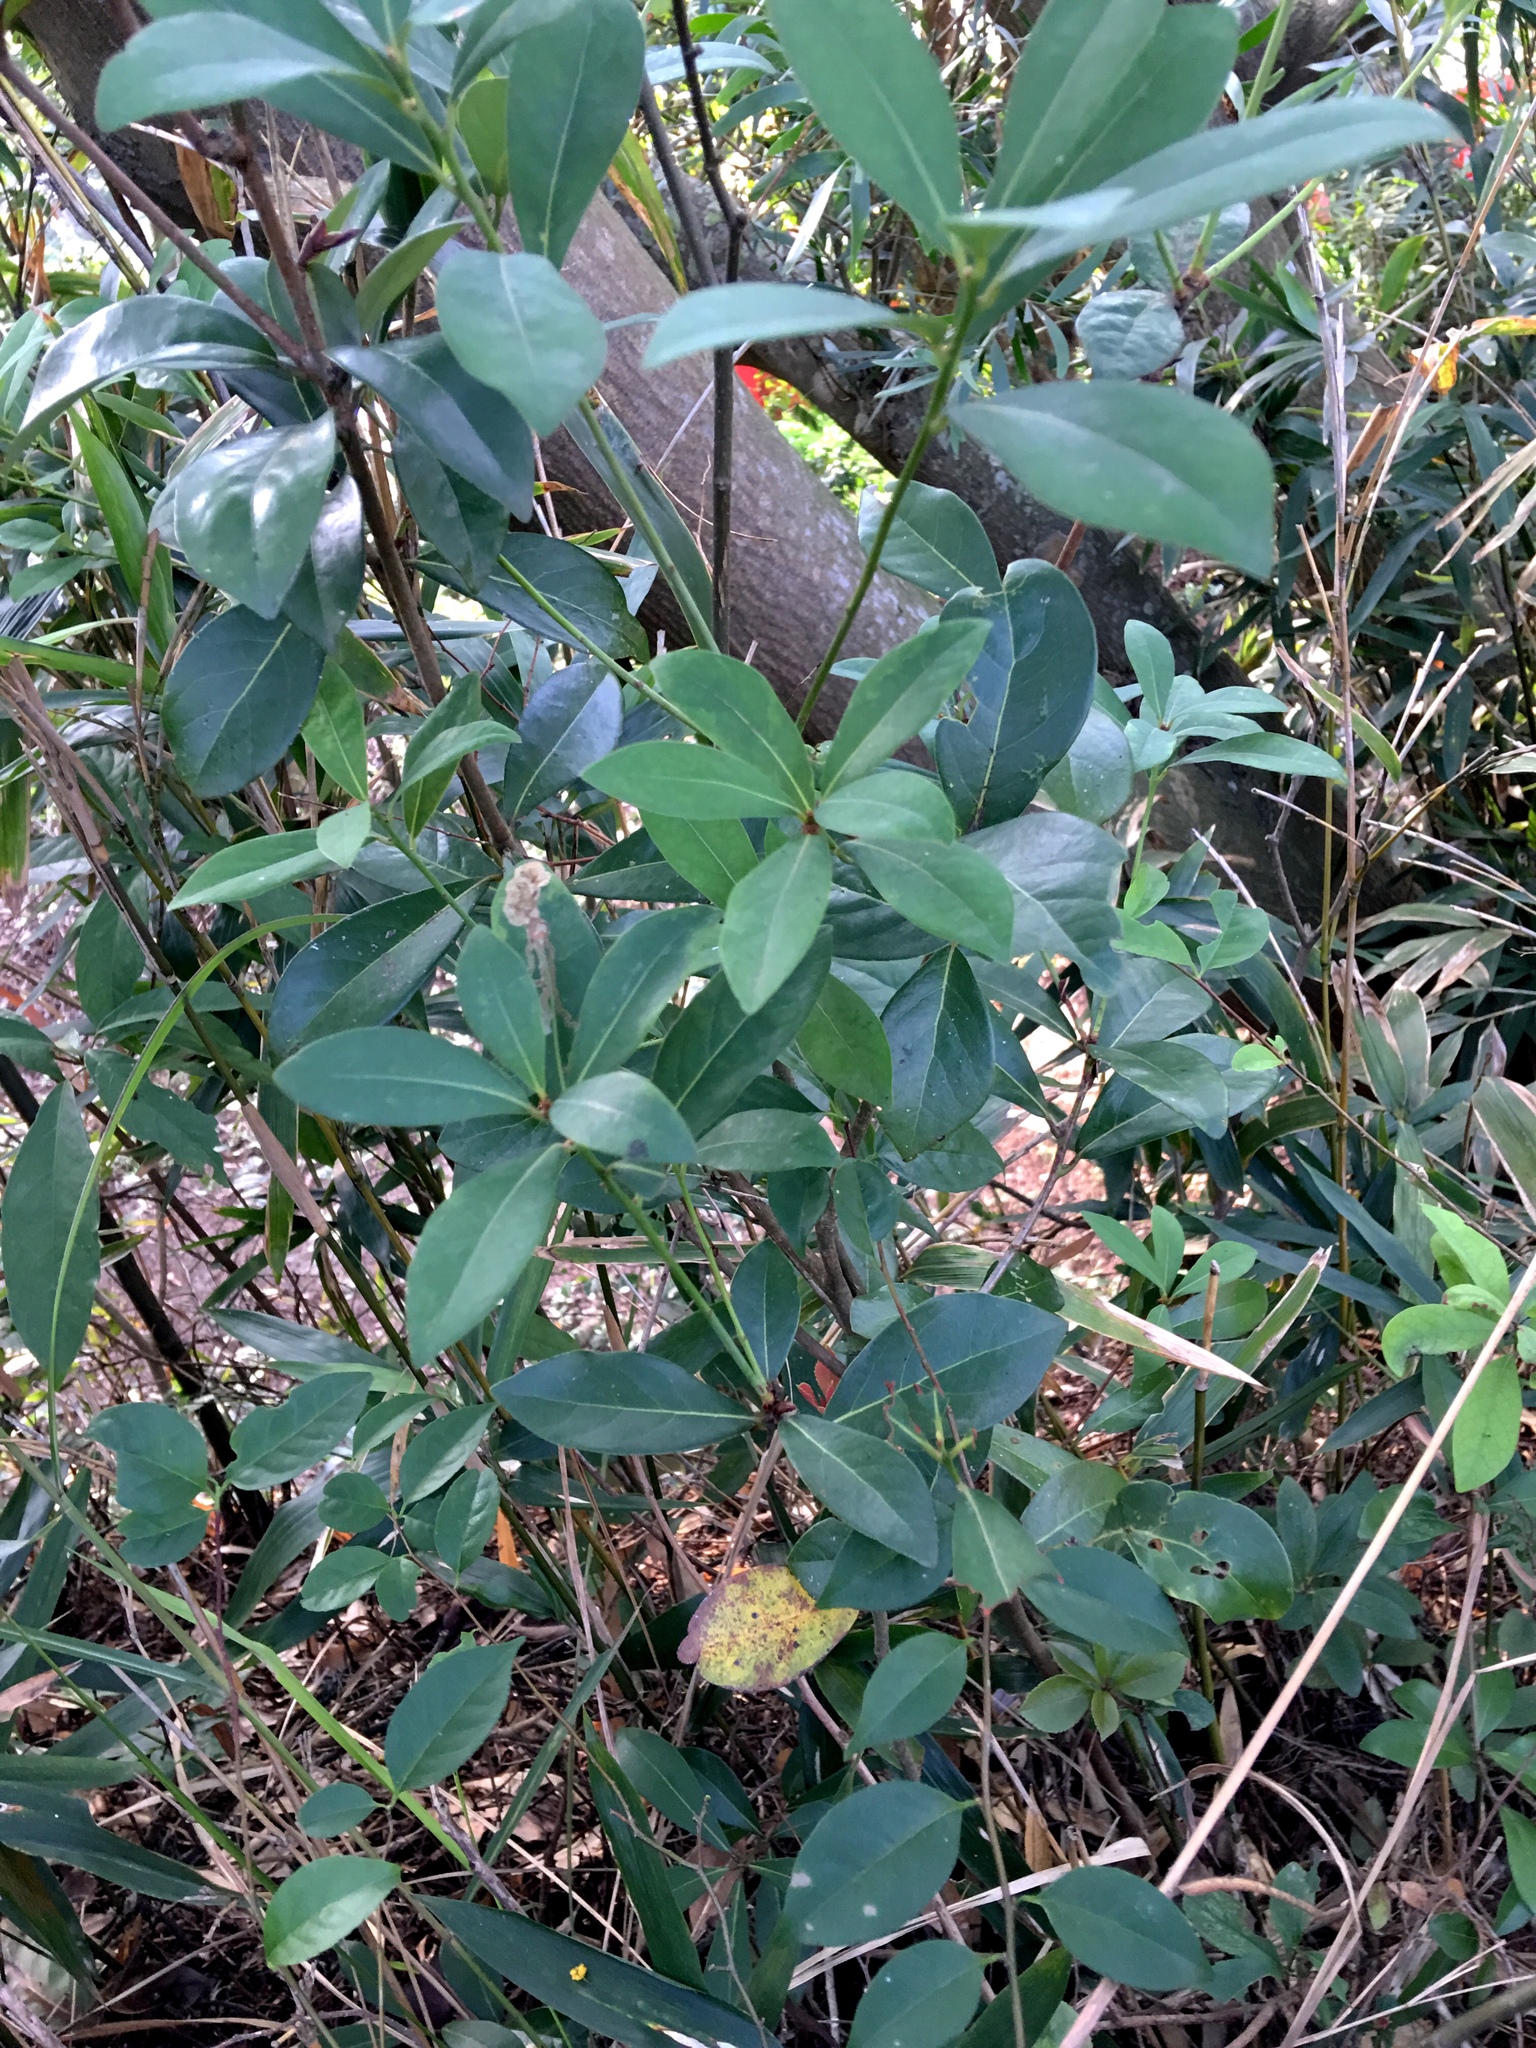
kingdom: Plantae
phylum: Tracheophyta
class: Magnoliopsida
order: Laurales
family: Lauraceae
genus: Litsea
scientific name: Litsea rotundifolia
